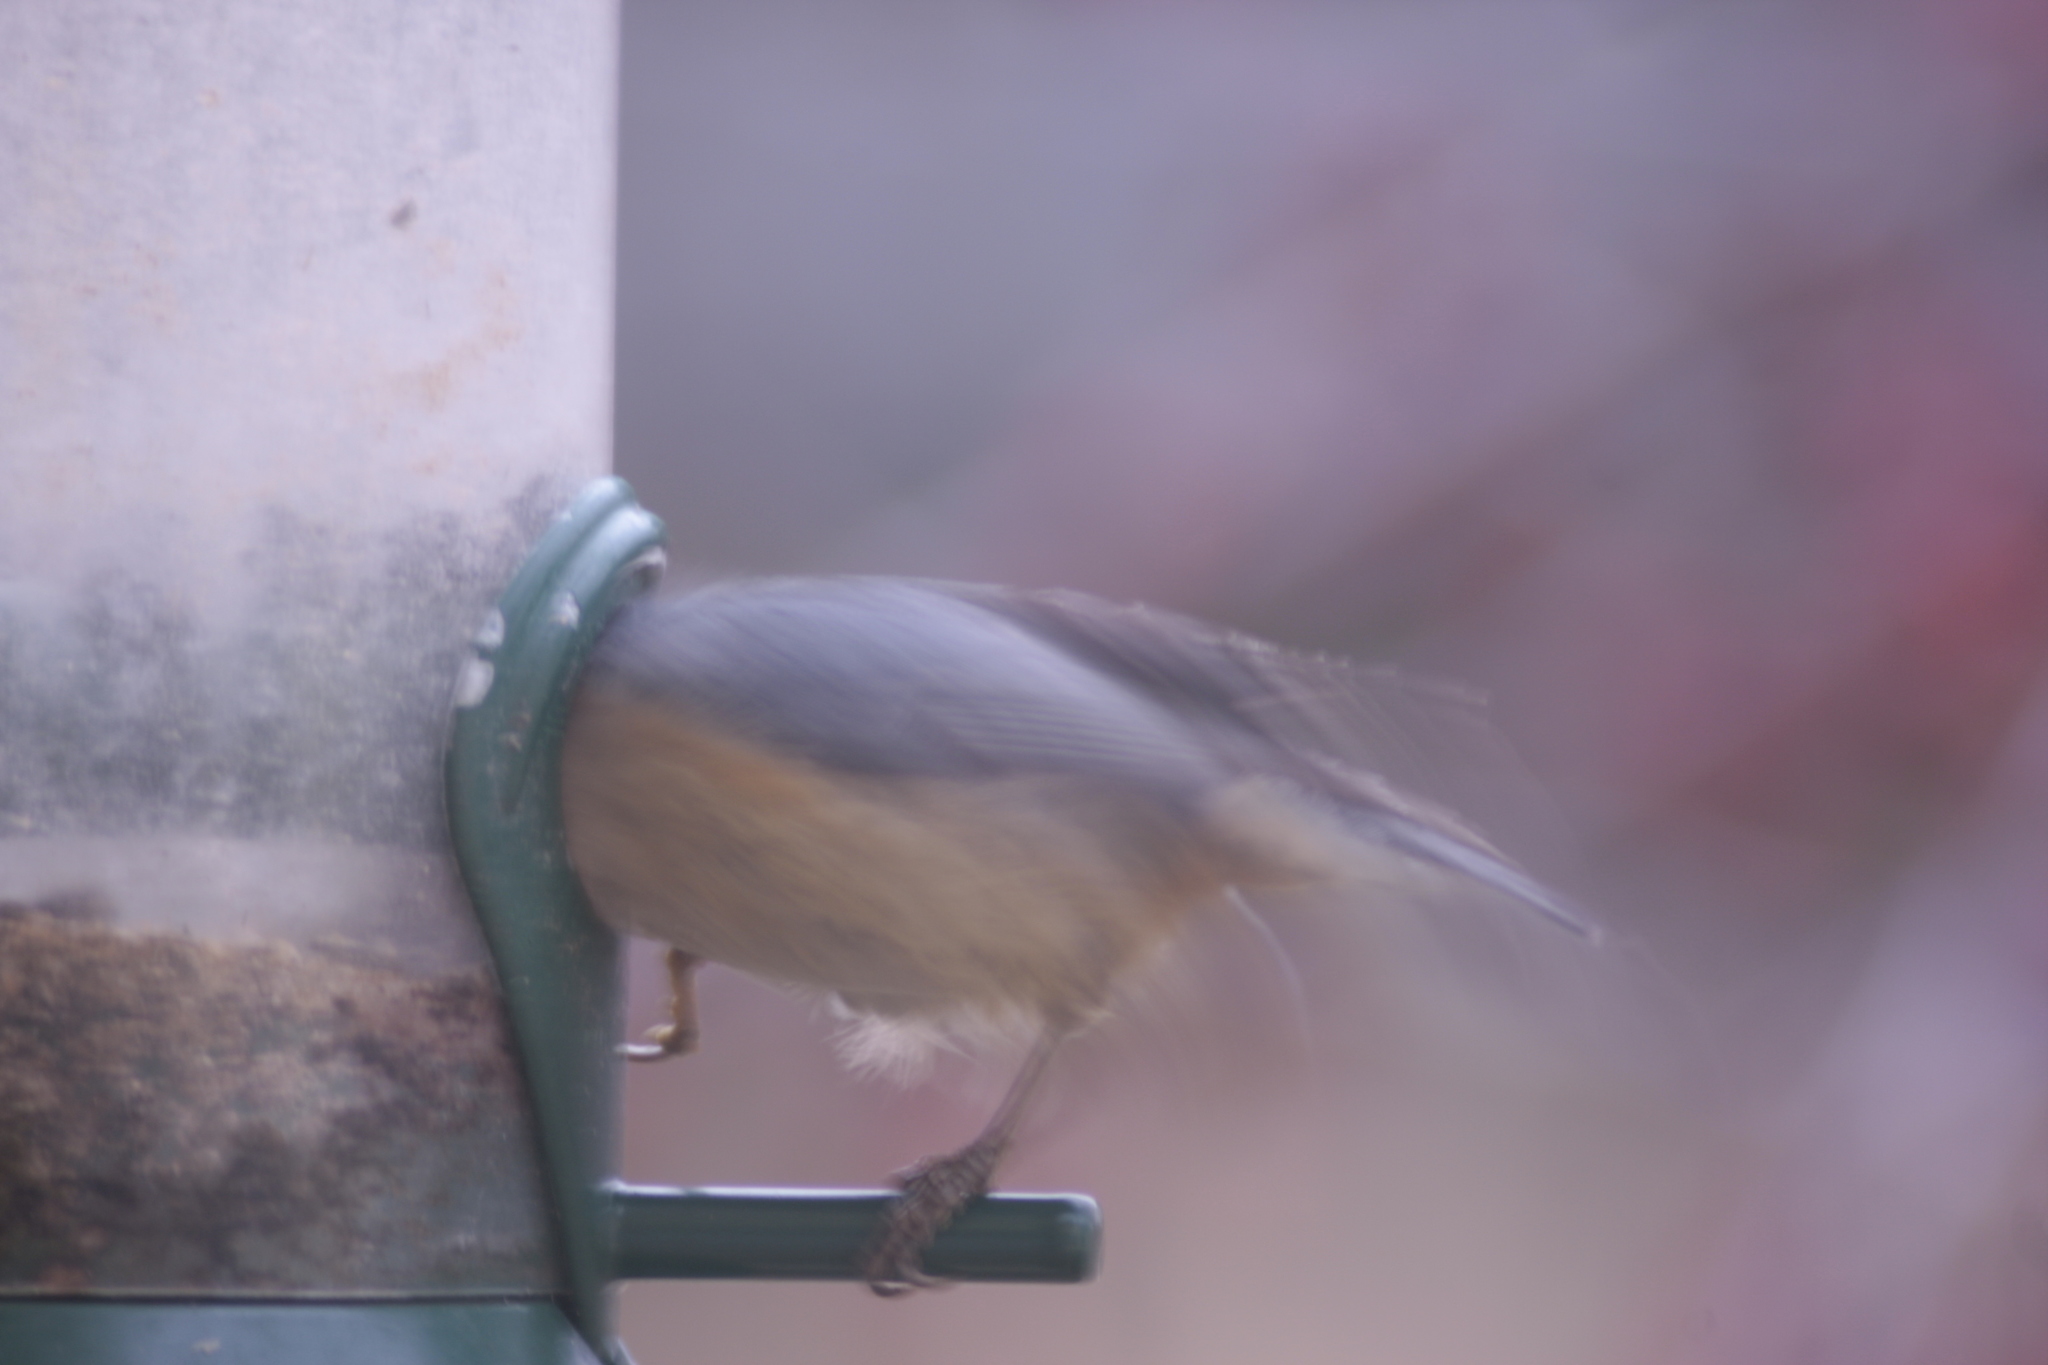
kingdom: Animalia
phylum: Chordata
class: Aves
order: Passeriformes
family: Sittidae
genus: Sitta
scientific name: Sitta canadensis
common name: Red-breasted nuthatch
